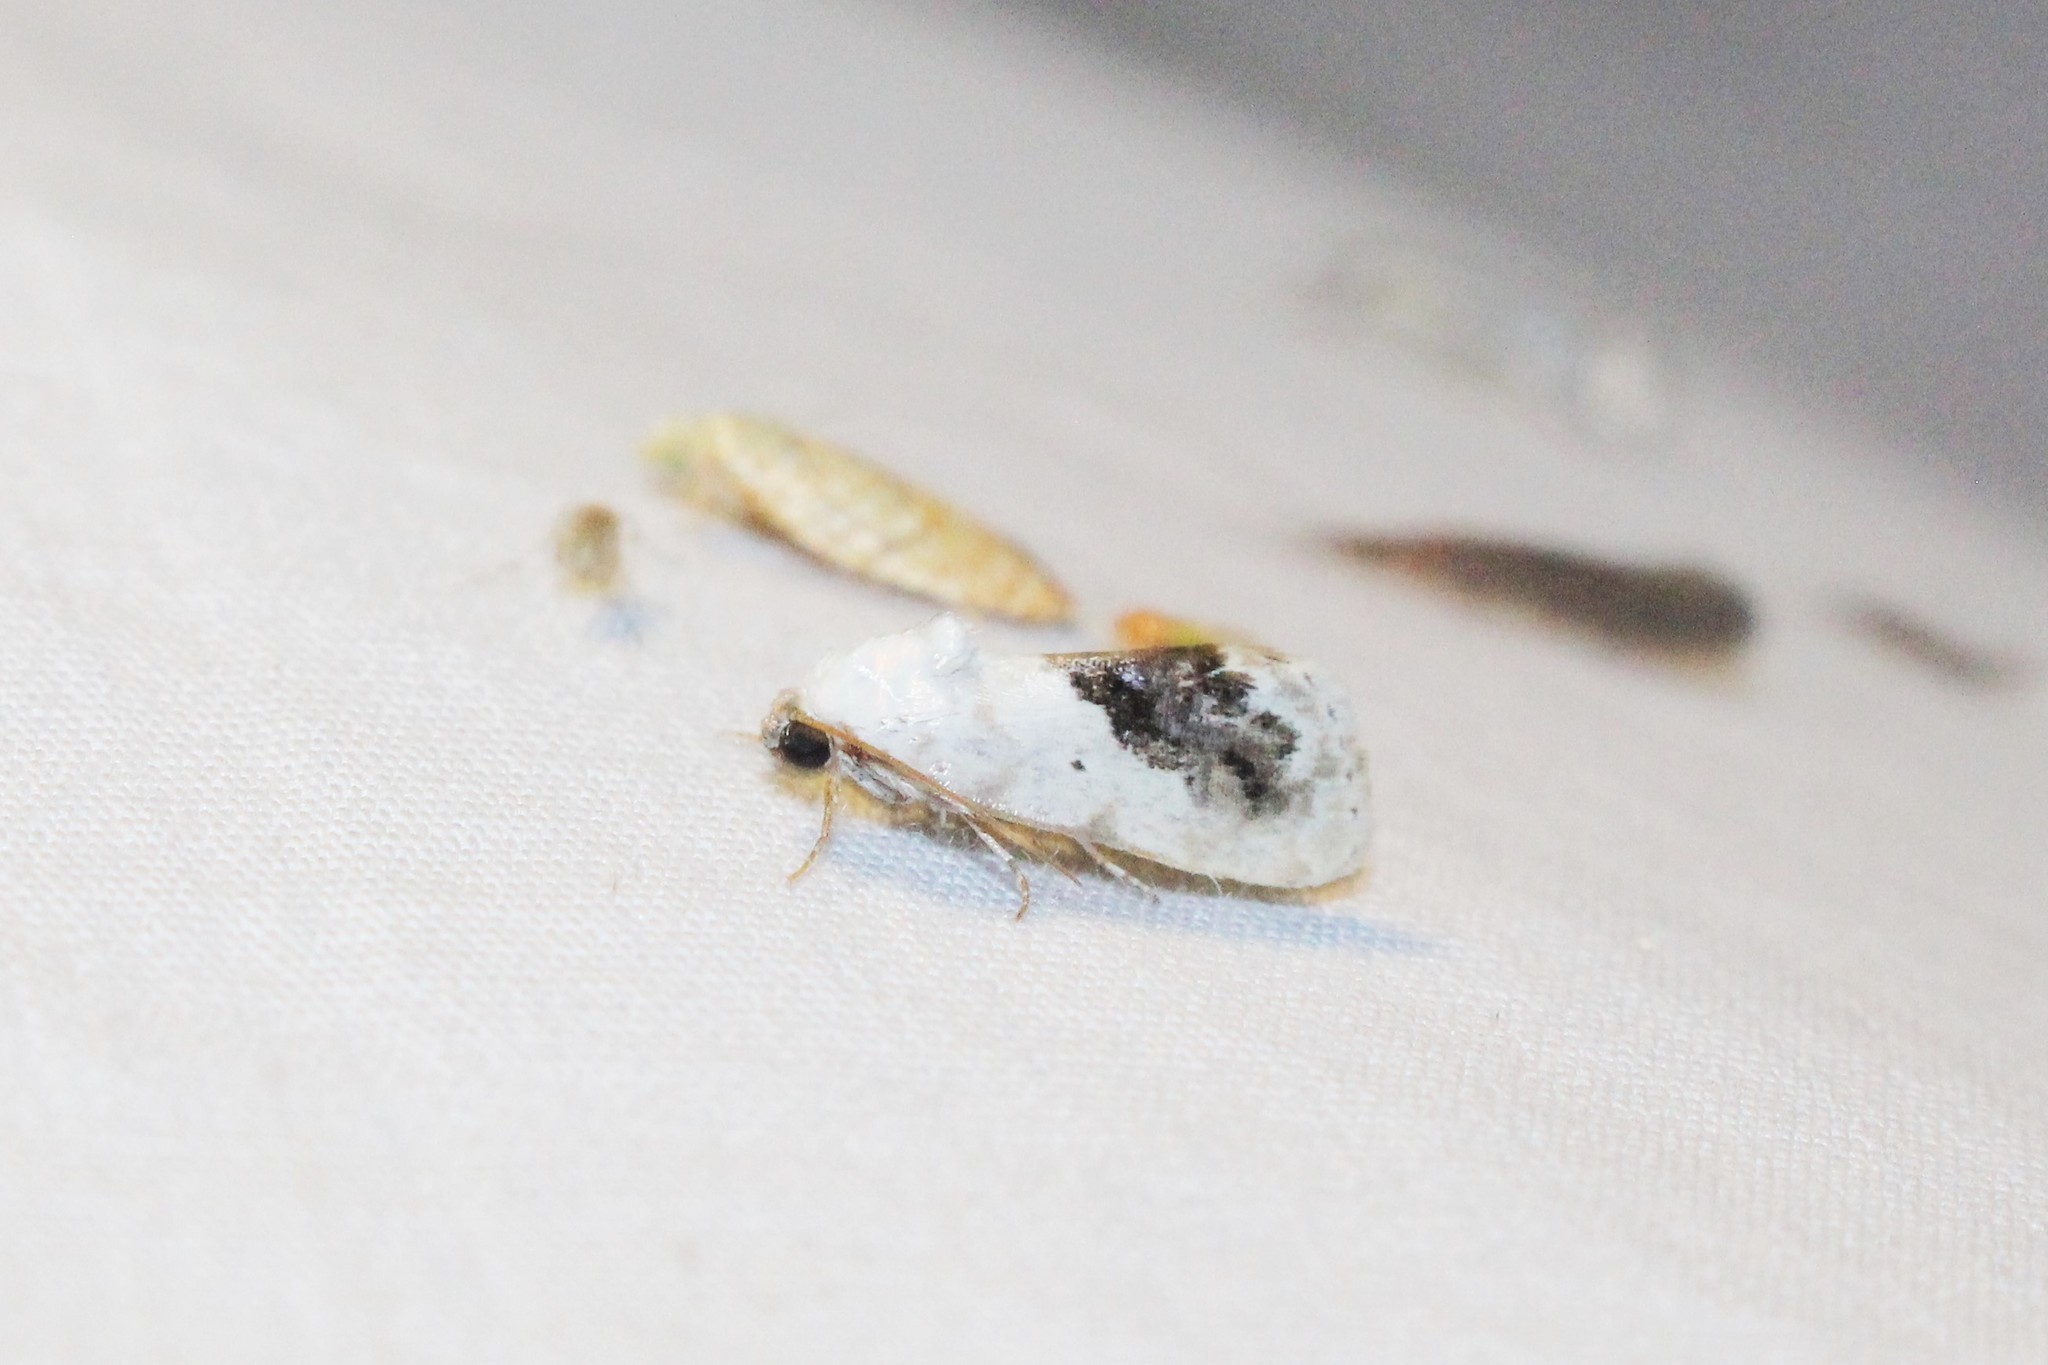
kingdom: Animalia
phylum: Arthropoda
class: Insecta
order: Lepidoptera
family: Noctuidae
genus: Acontia
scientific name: Acontia erastrioides
